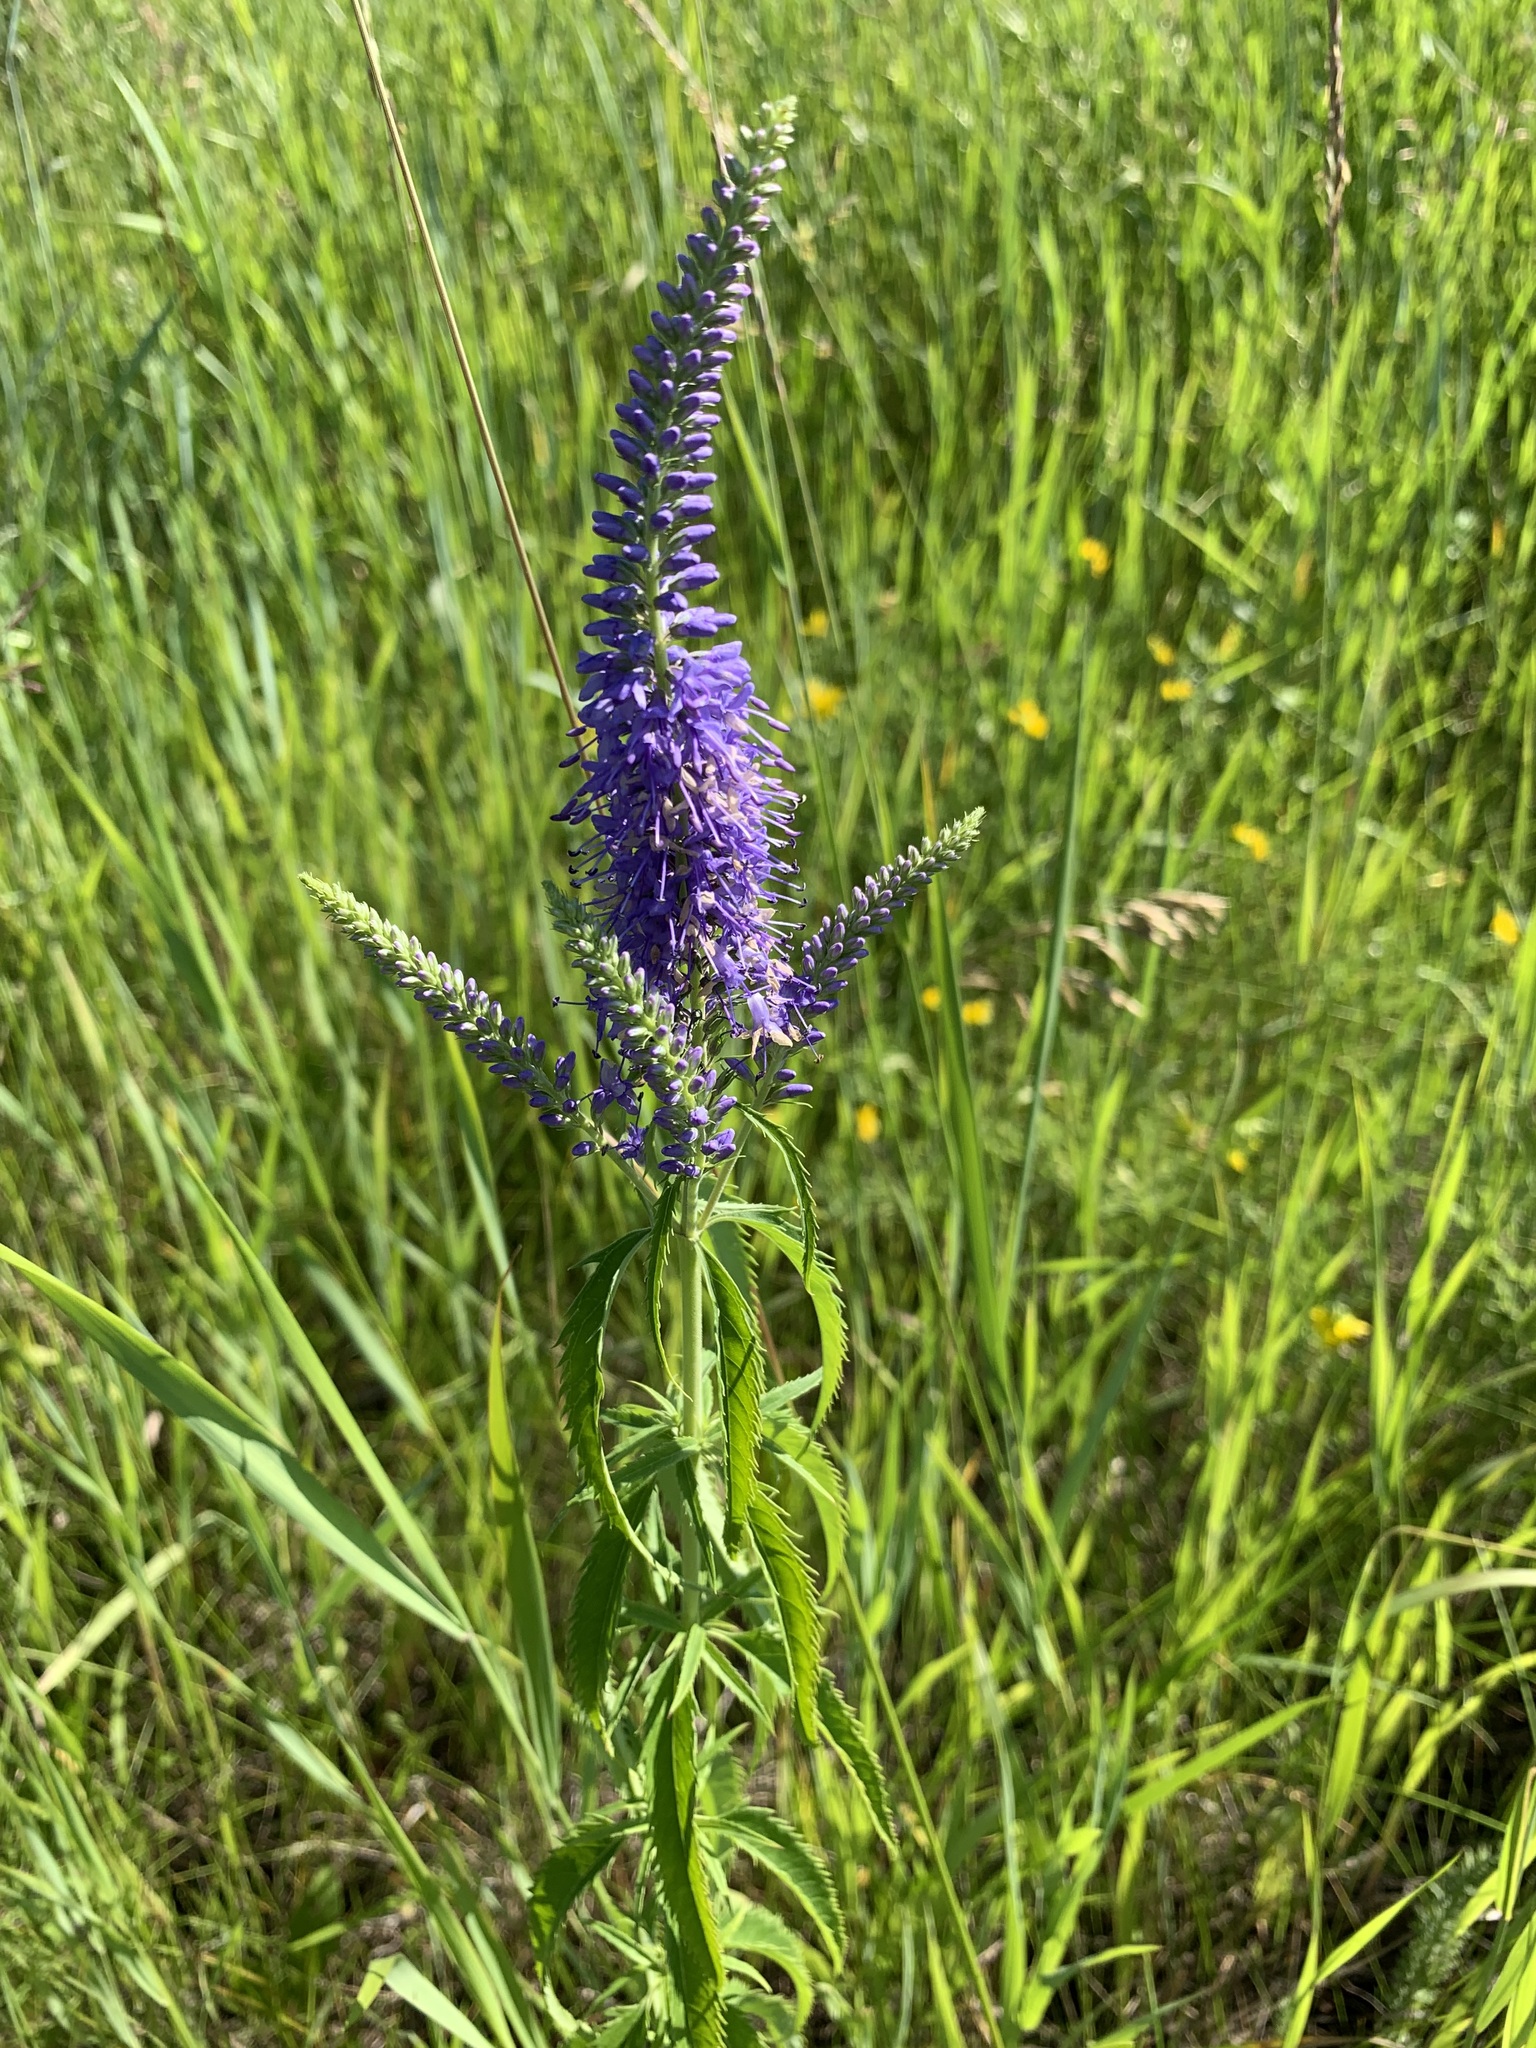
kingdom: Plantae
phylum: Tracheophyta
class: Magnoliopsida
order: Lamiales
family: Plantaginaceae
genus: Veronica
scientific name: Veronica longifolia
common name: Garden speedwell
